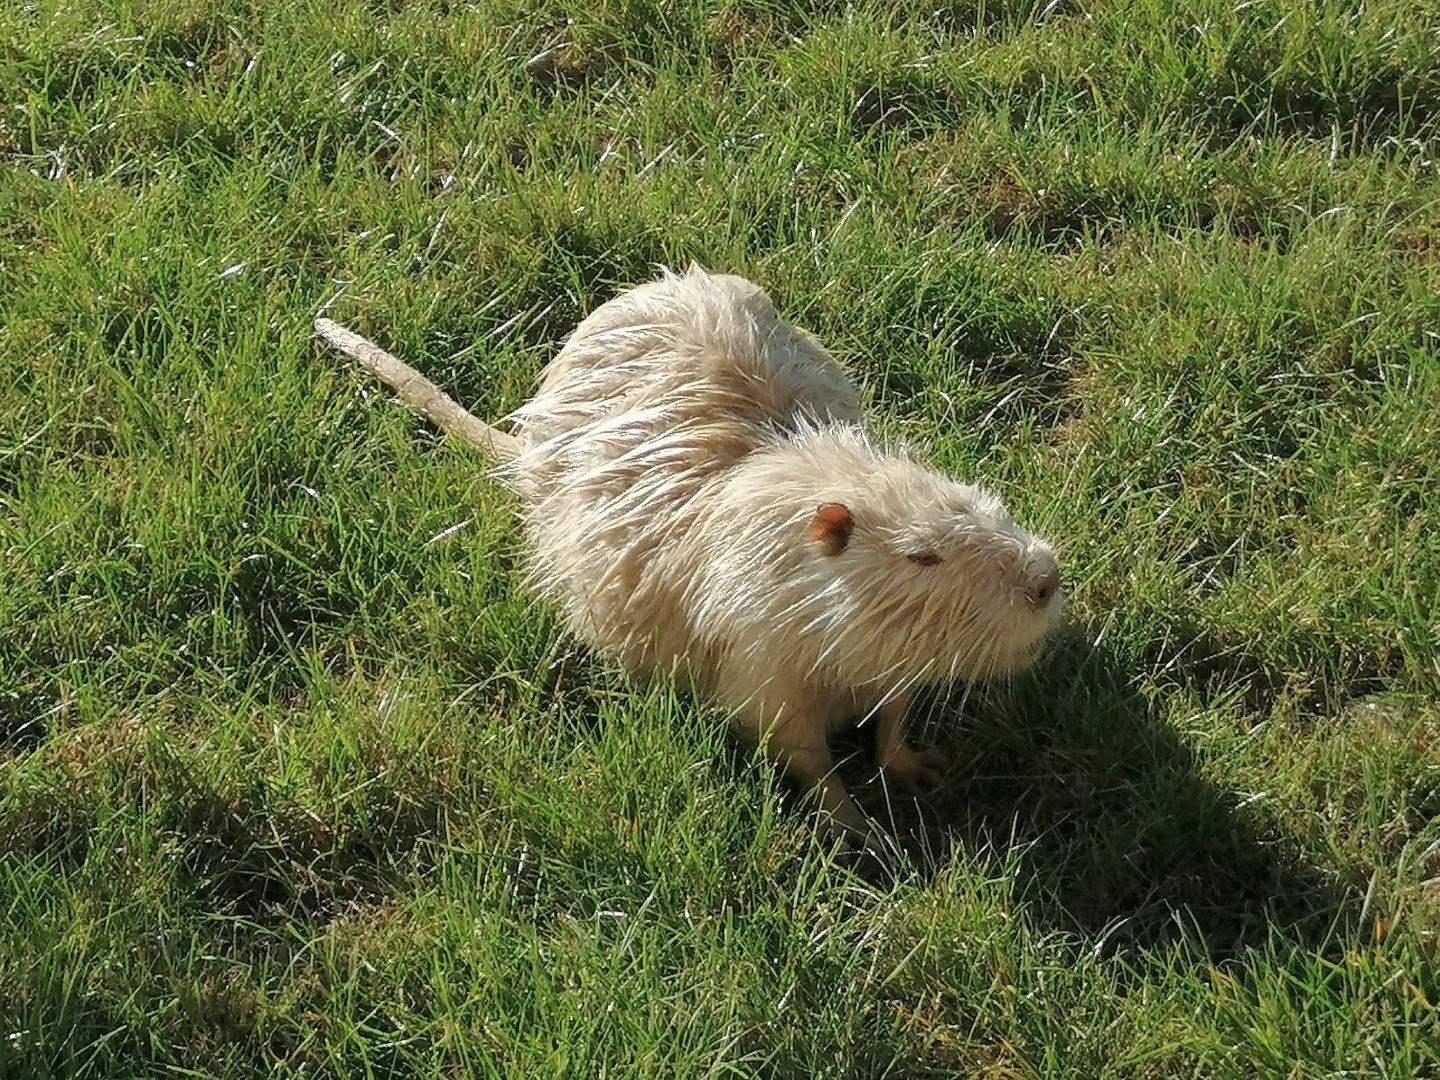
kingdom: Animalia
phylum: Chordata
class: Mammalia
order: Rodentia
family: Myocastoridae
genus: Myocastor
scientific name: Myocastor coypus
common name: Coypu
